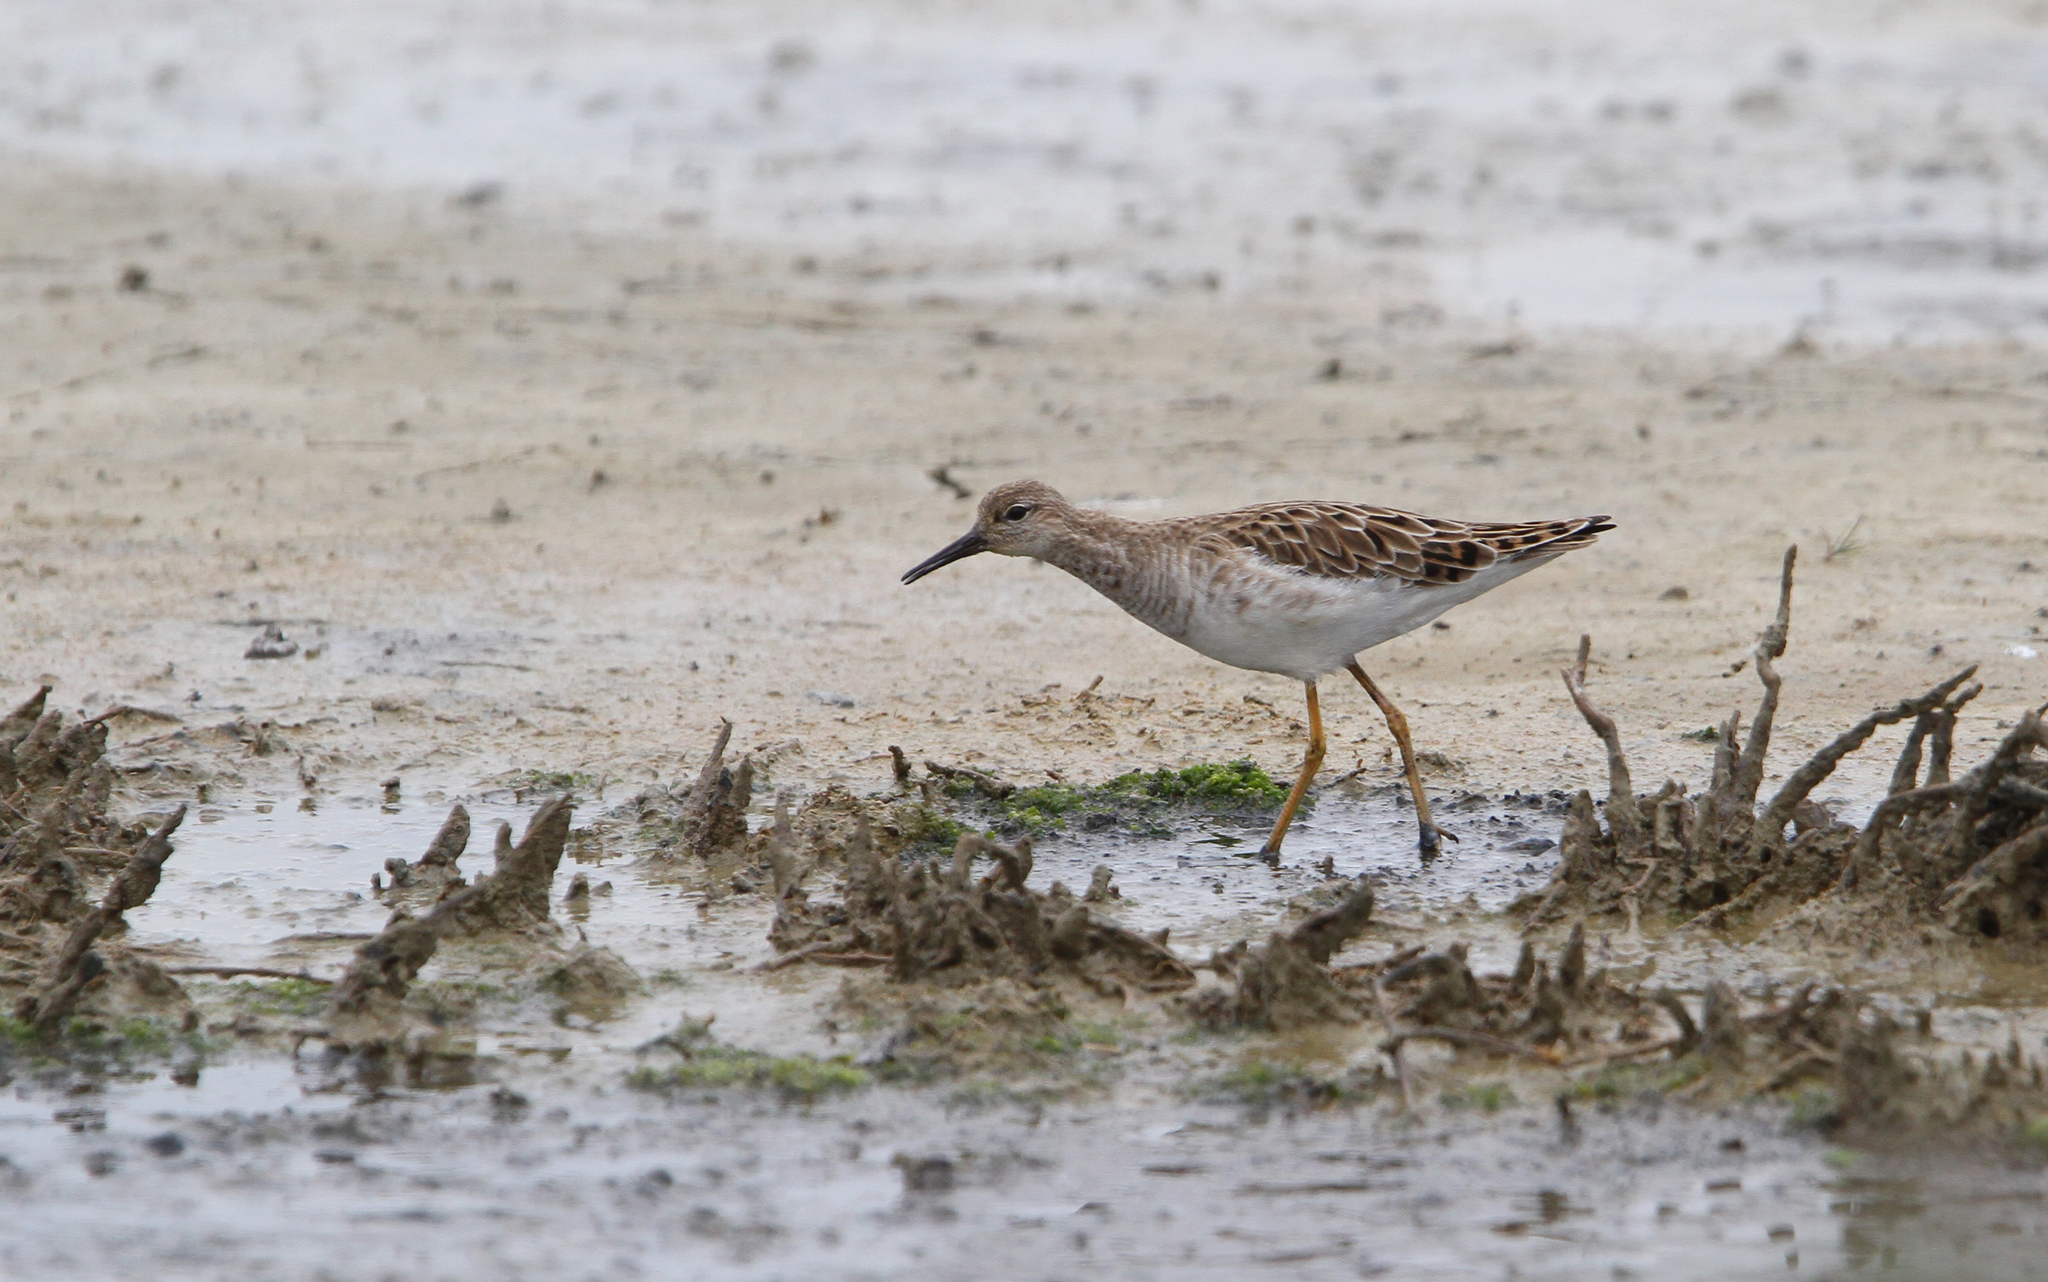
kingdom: Animalia
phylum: Chordata
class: Aves
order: Charadriiformes
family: Scolopacidae
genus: Calidris
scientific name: Calidris pugnax
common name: Ruff
